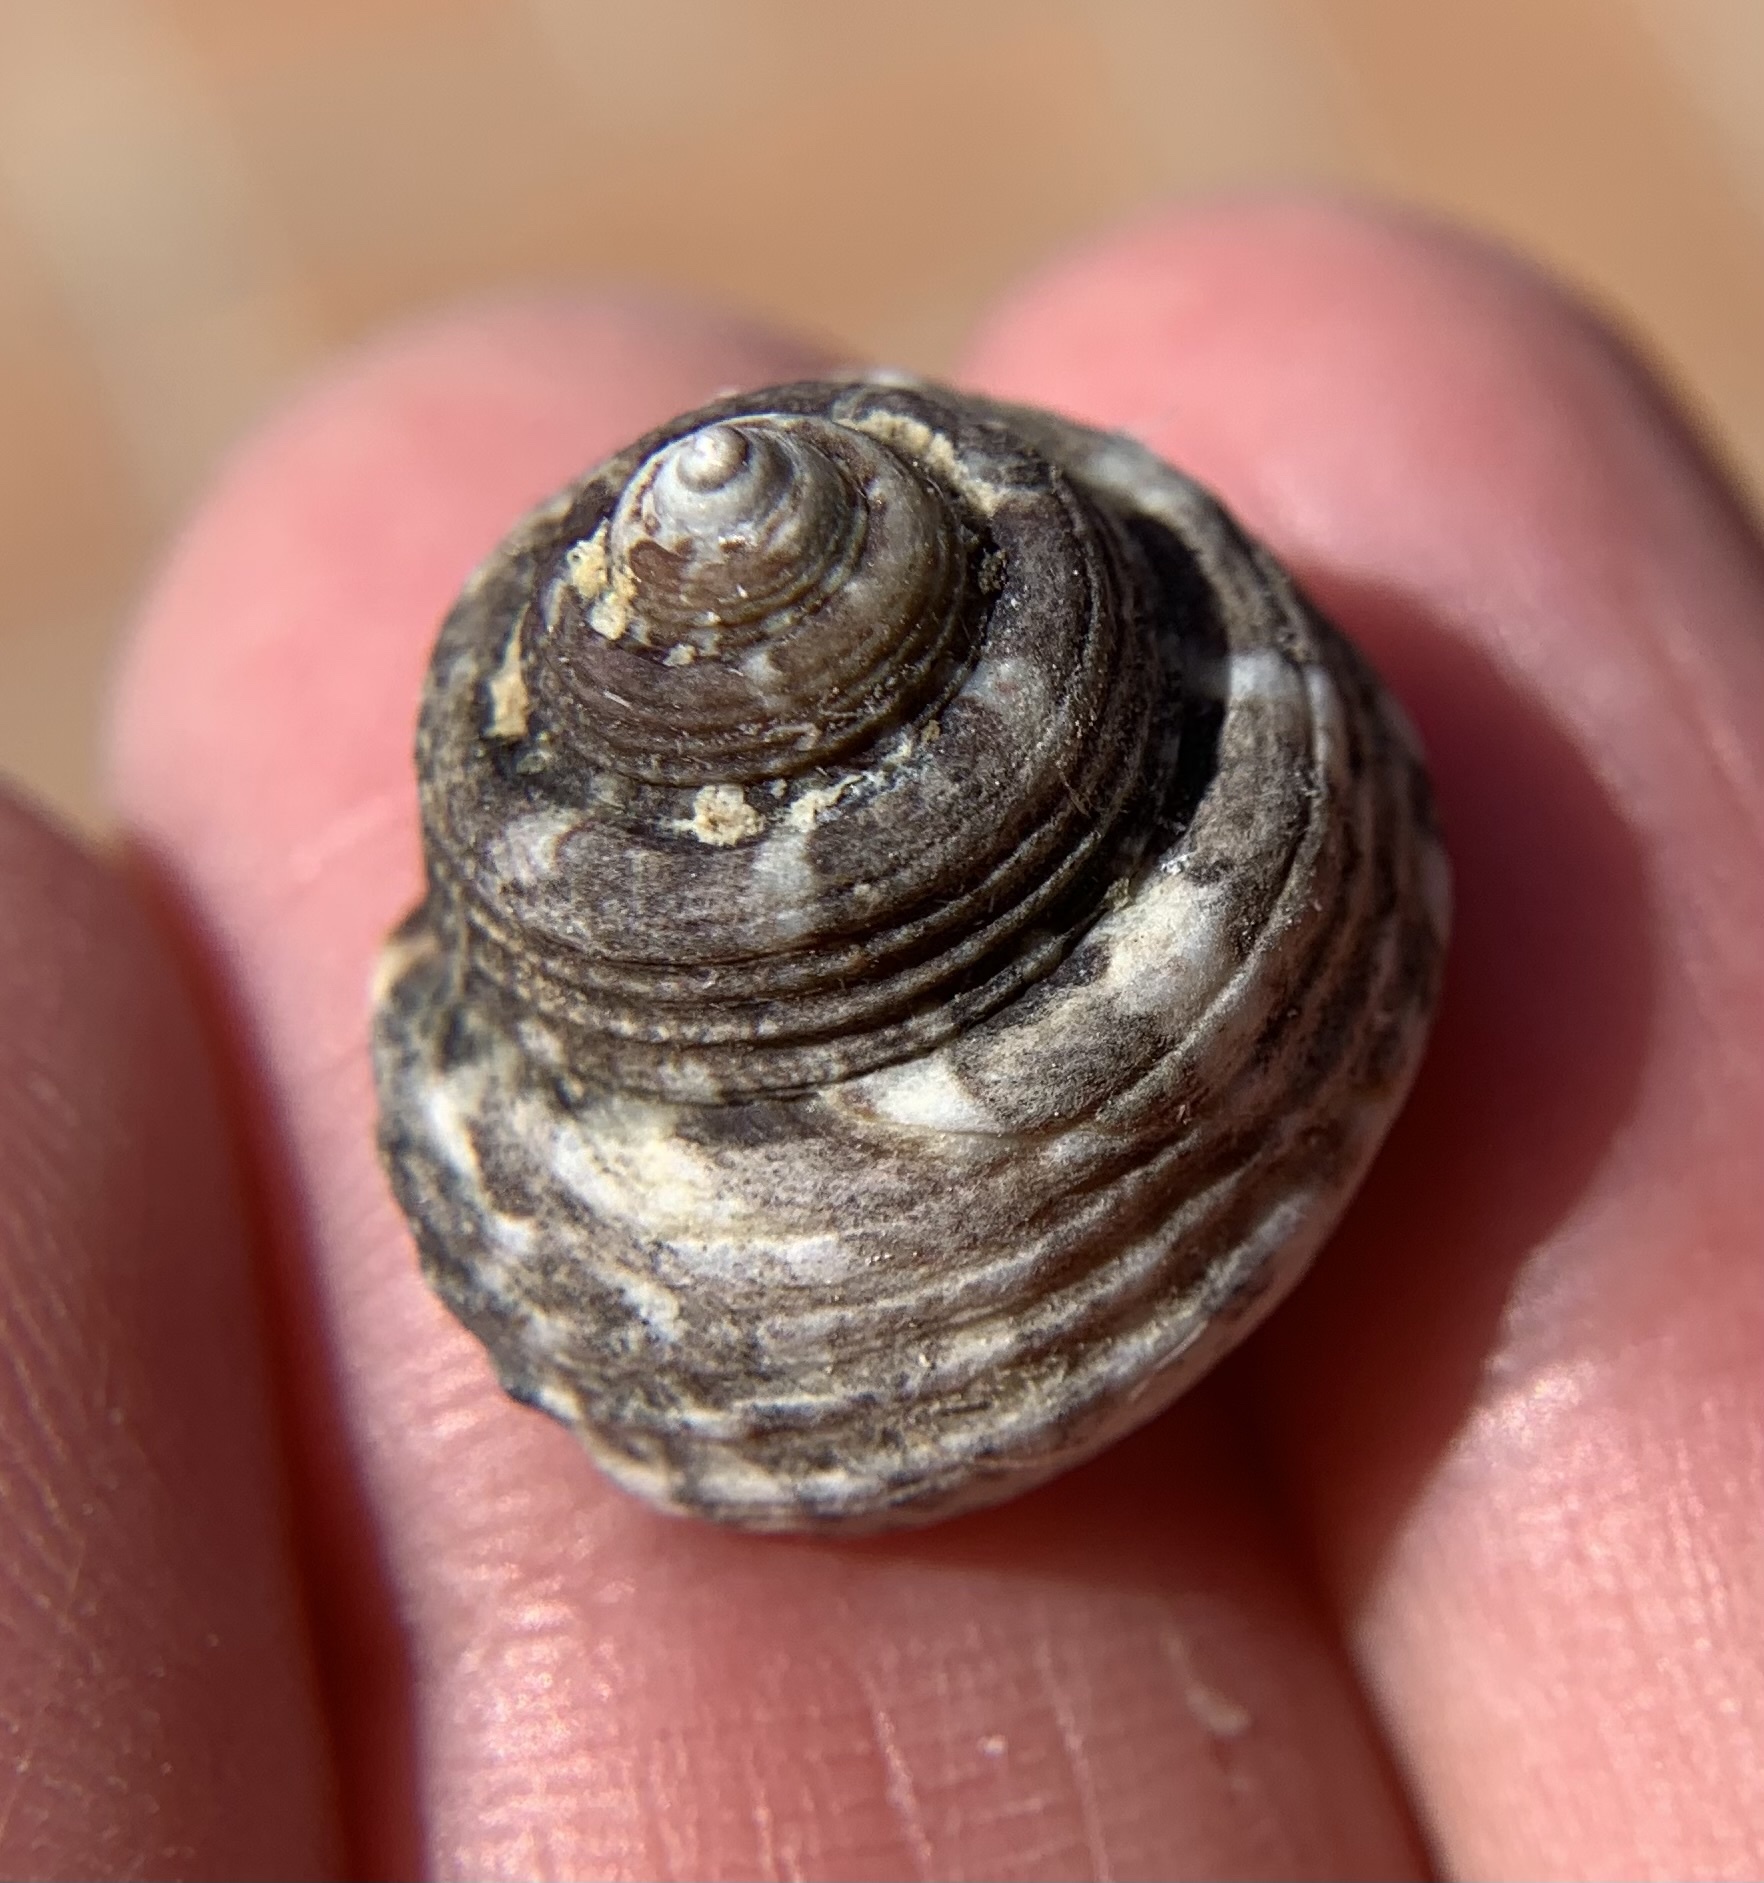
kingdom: Animalia
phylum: Mollusca
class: Gastropoda
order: Trochida
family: Trochidae
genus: Steromphala
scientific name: Steromphala albida
